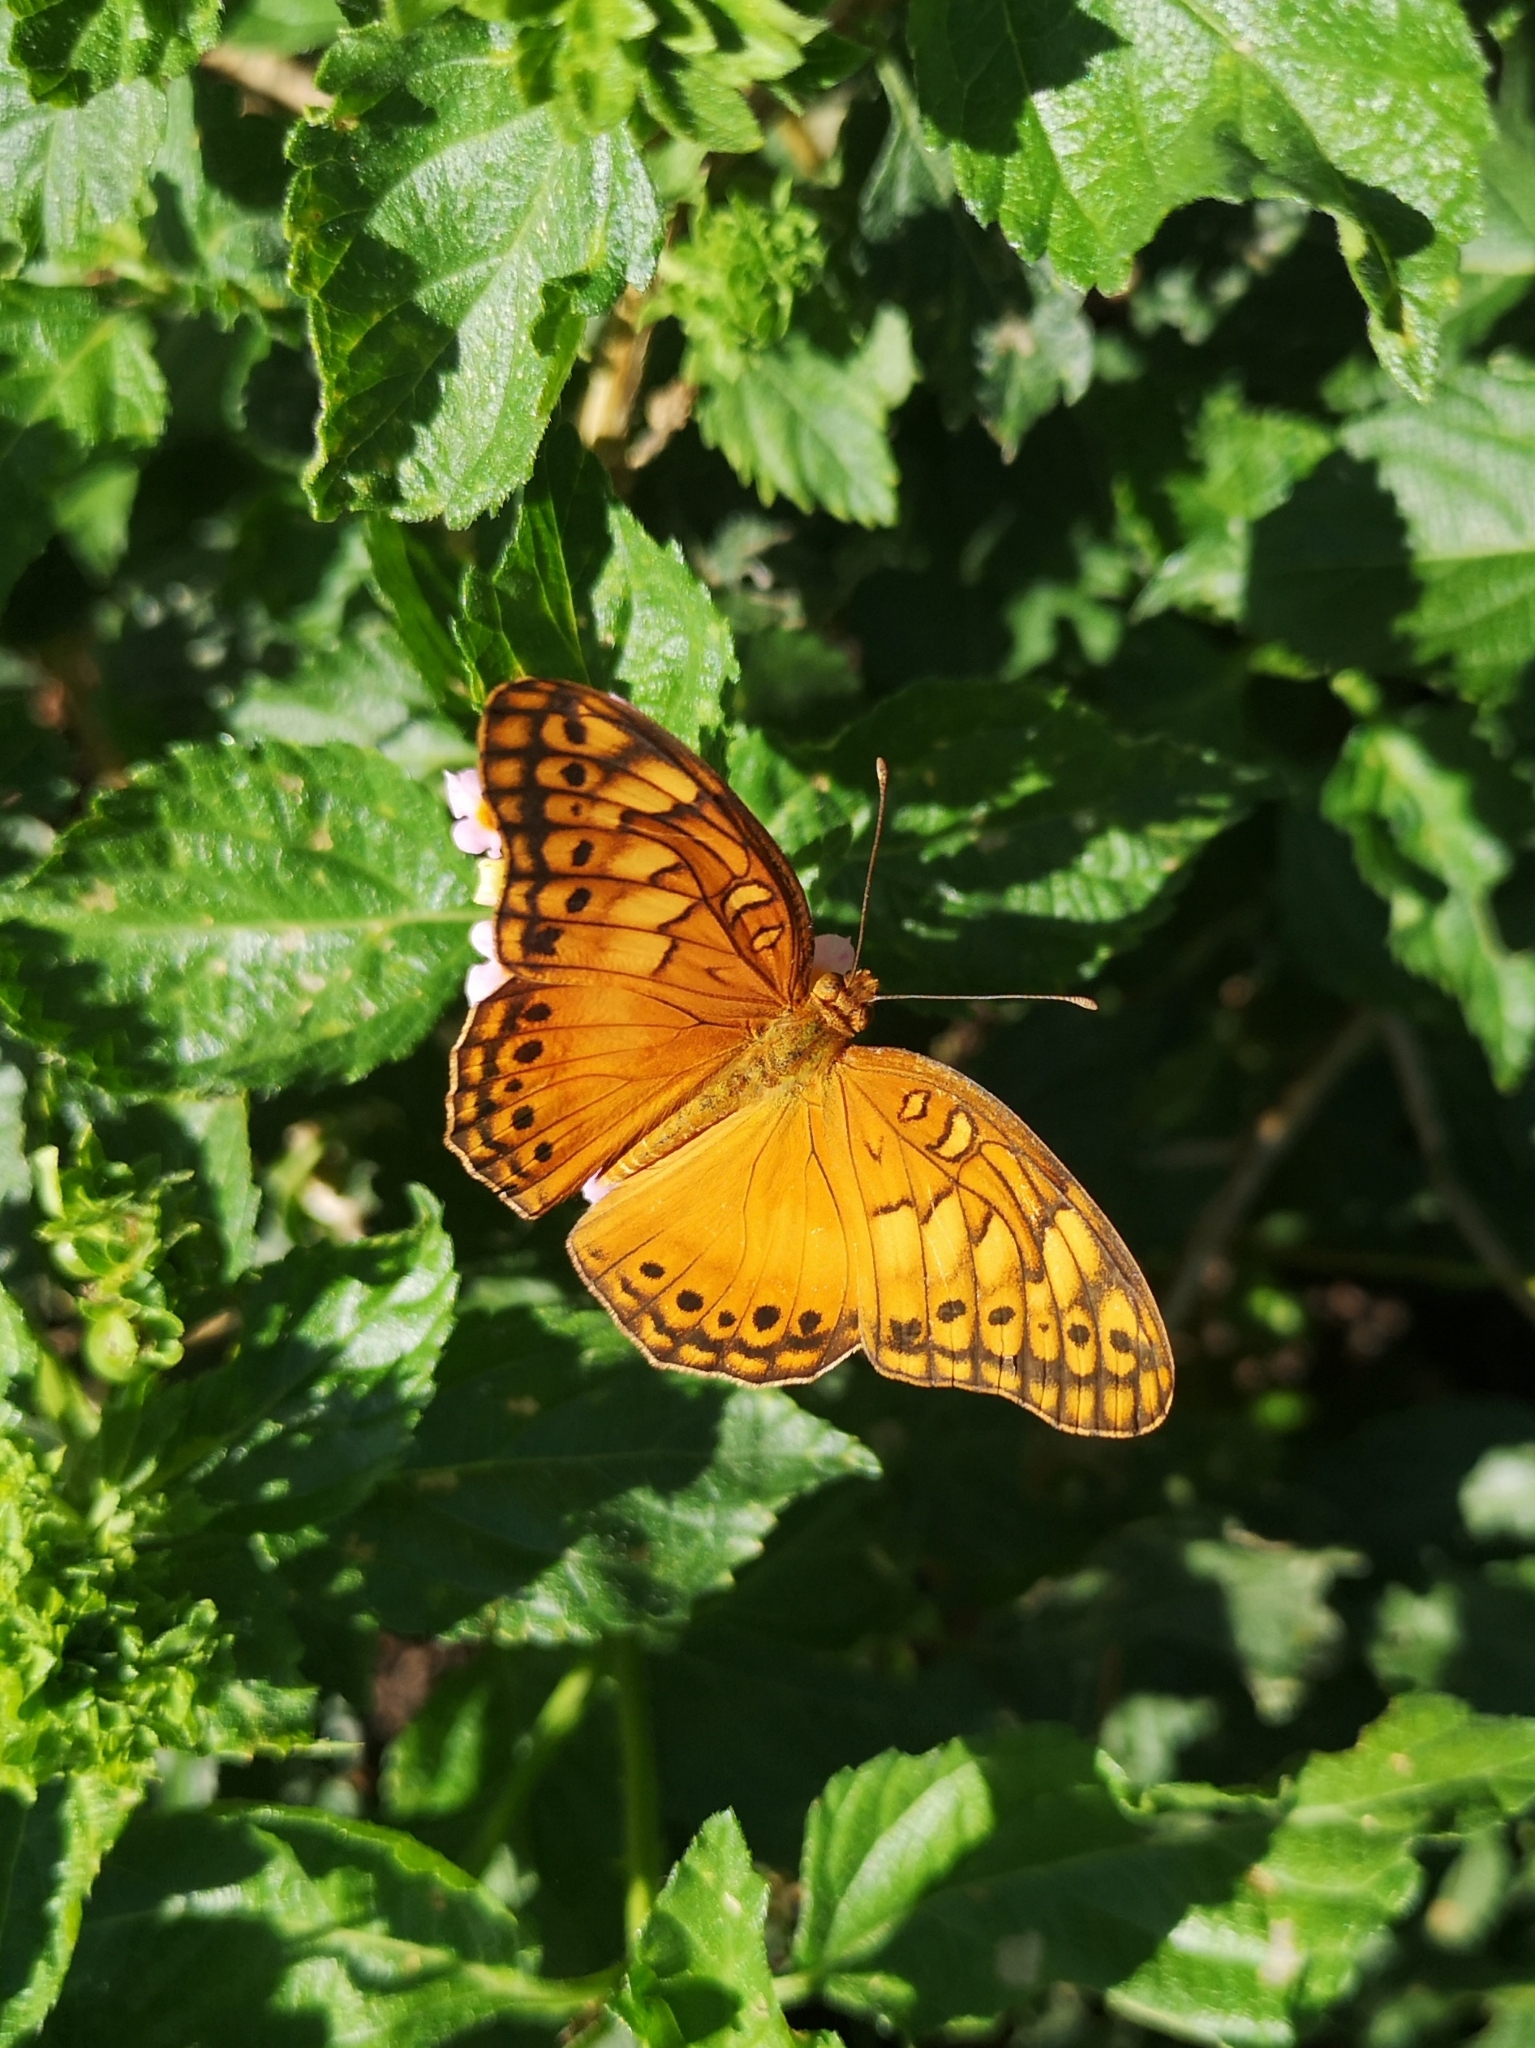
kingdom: Animalia
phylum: Arthropoda
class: Insecta
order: Lepidoptera
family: Nymphalidae
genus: Euptoieta
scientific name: Euptoieta hegesia
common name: Mexican fritillary
